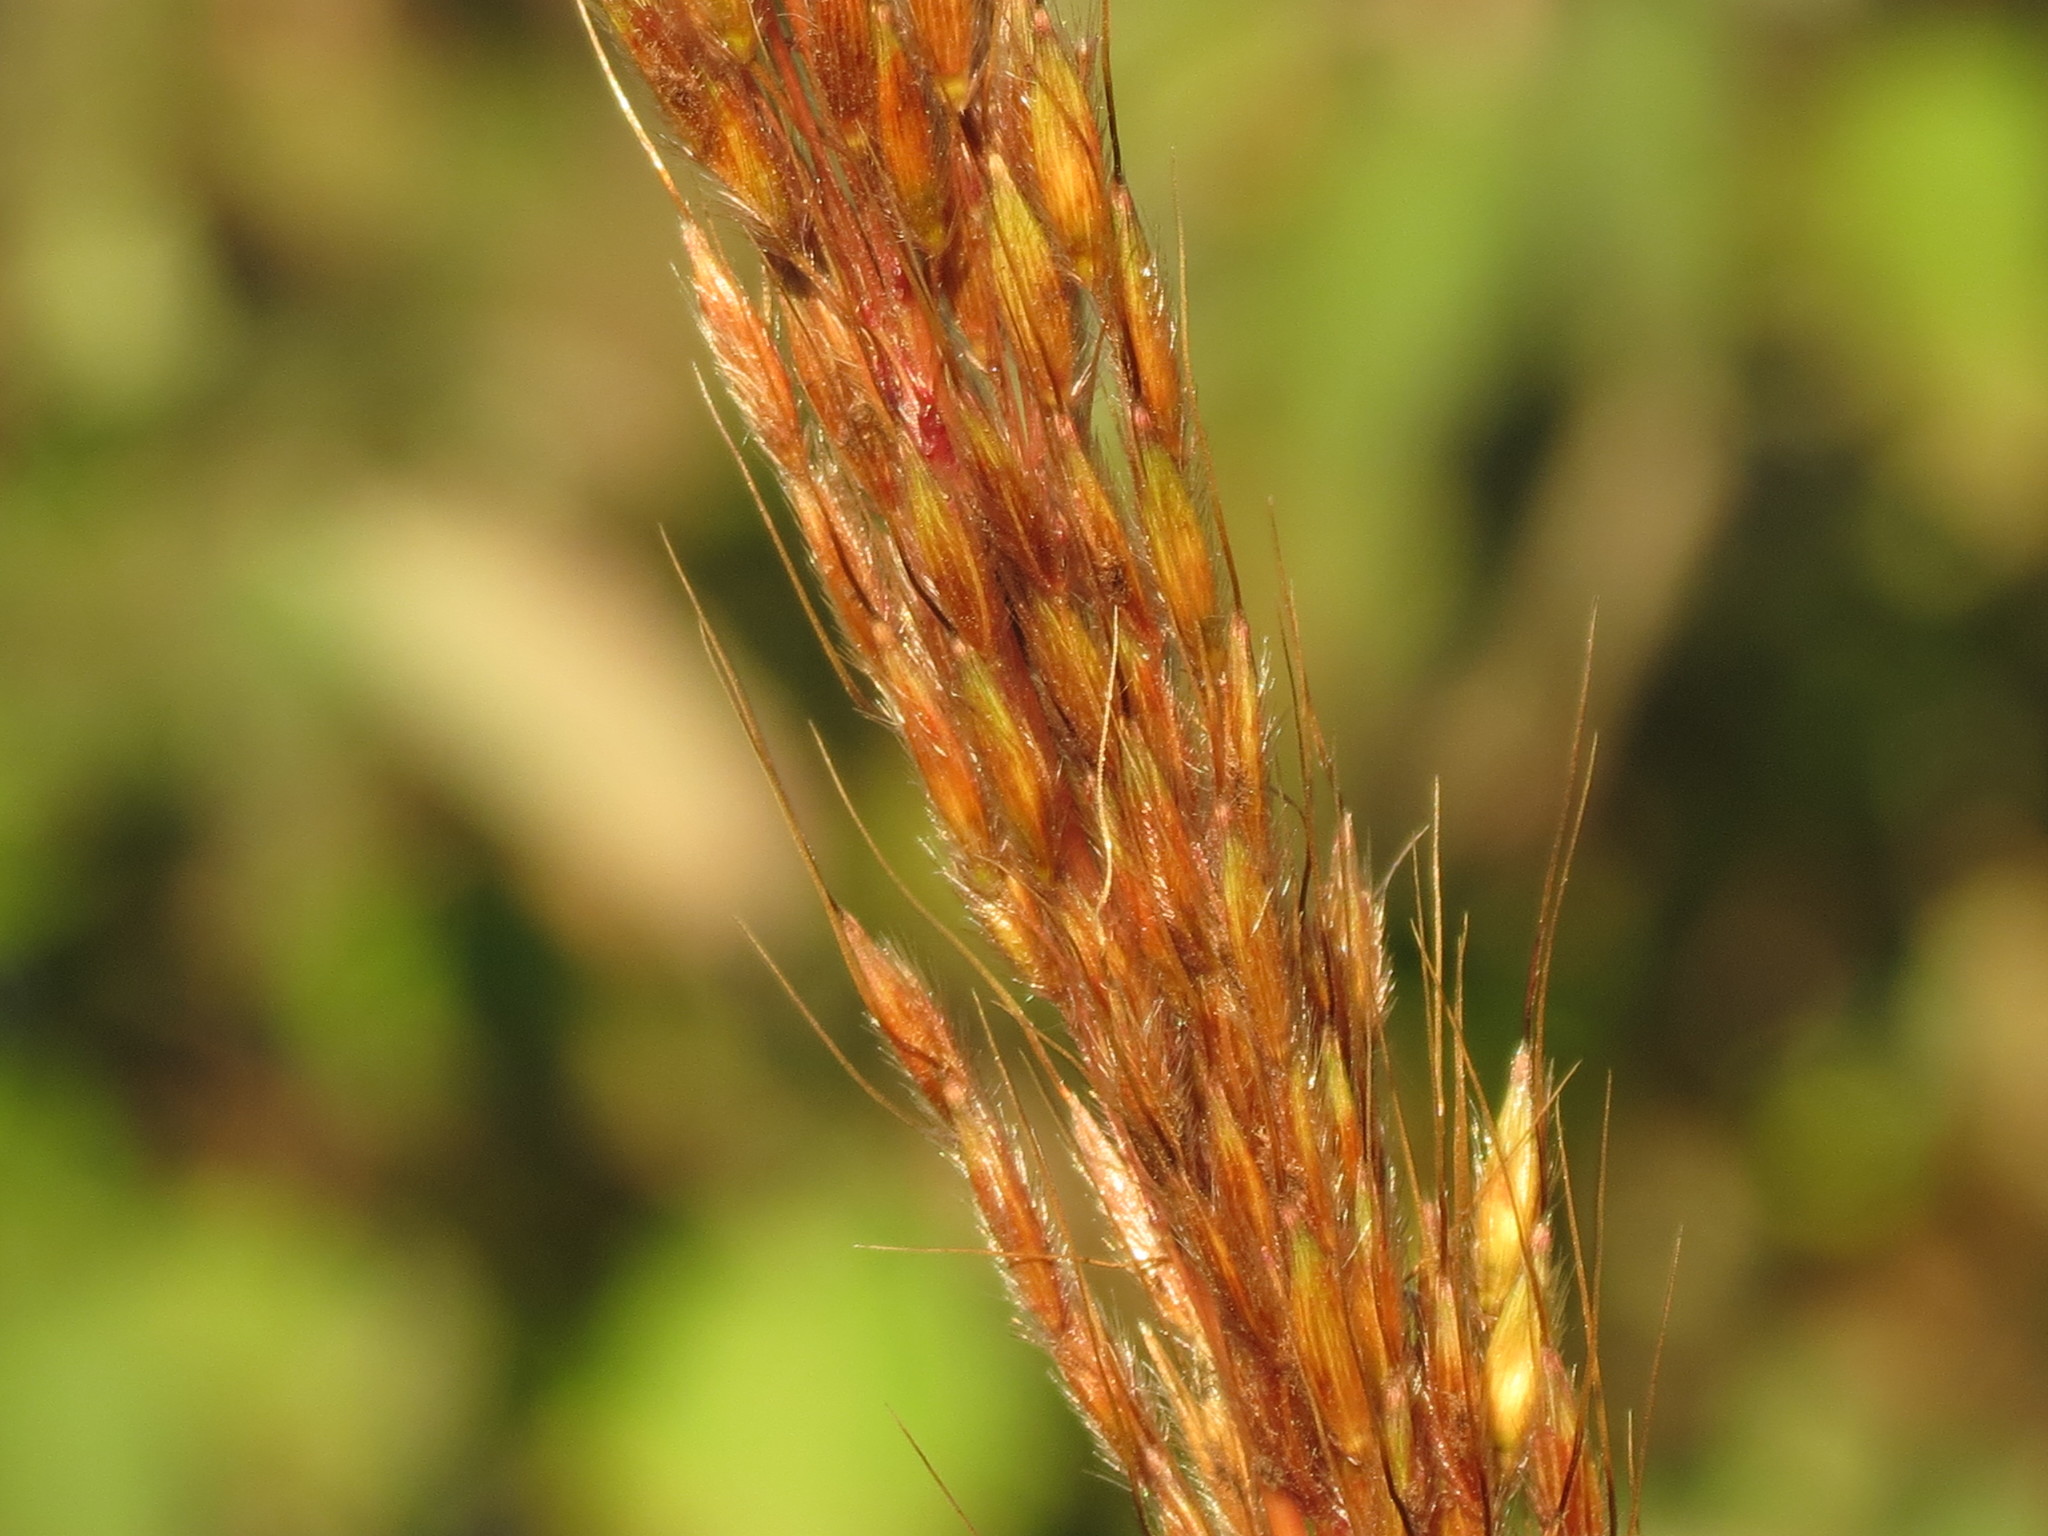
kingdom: Plantae
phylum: Tracheophyta
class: Liliopsida
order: Poales
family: Poaceae
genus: Sorghastrum
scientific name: Sorghastrum nutans
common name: Indian grass
